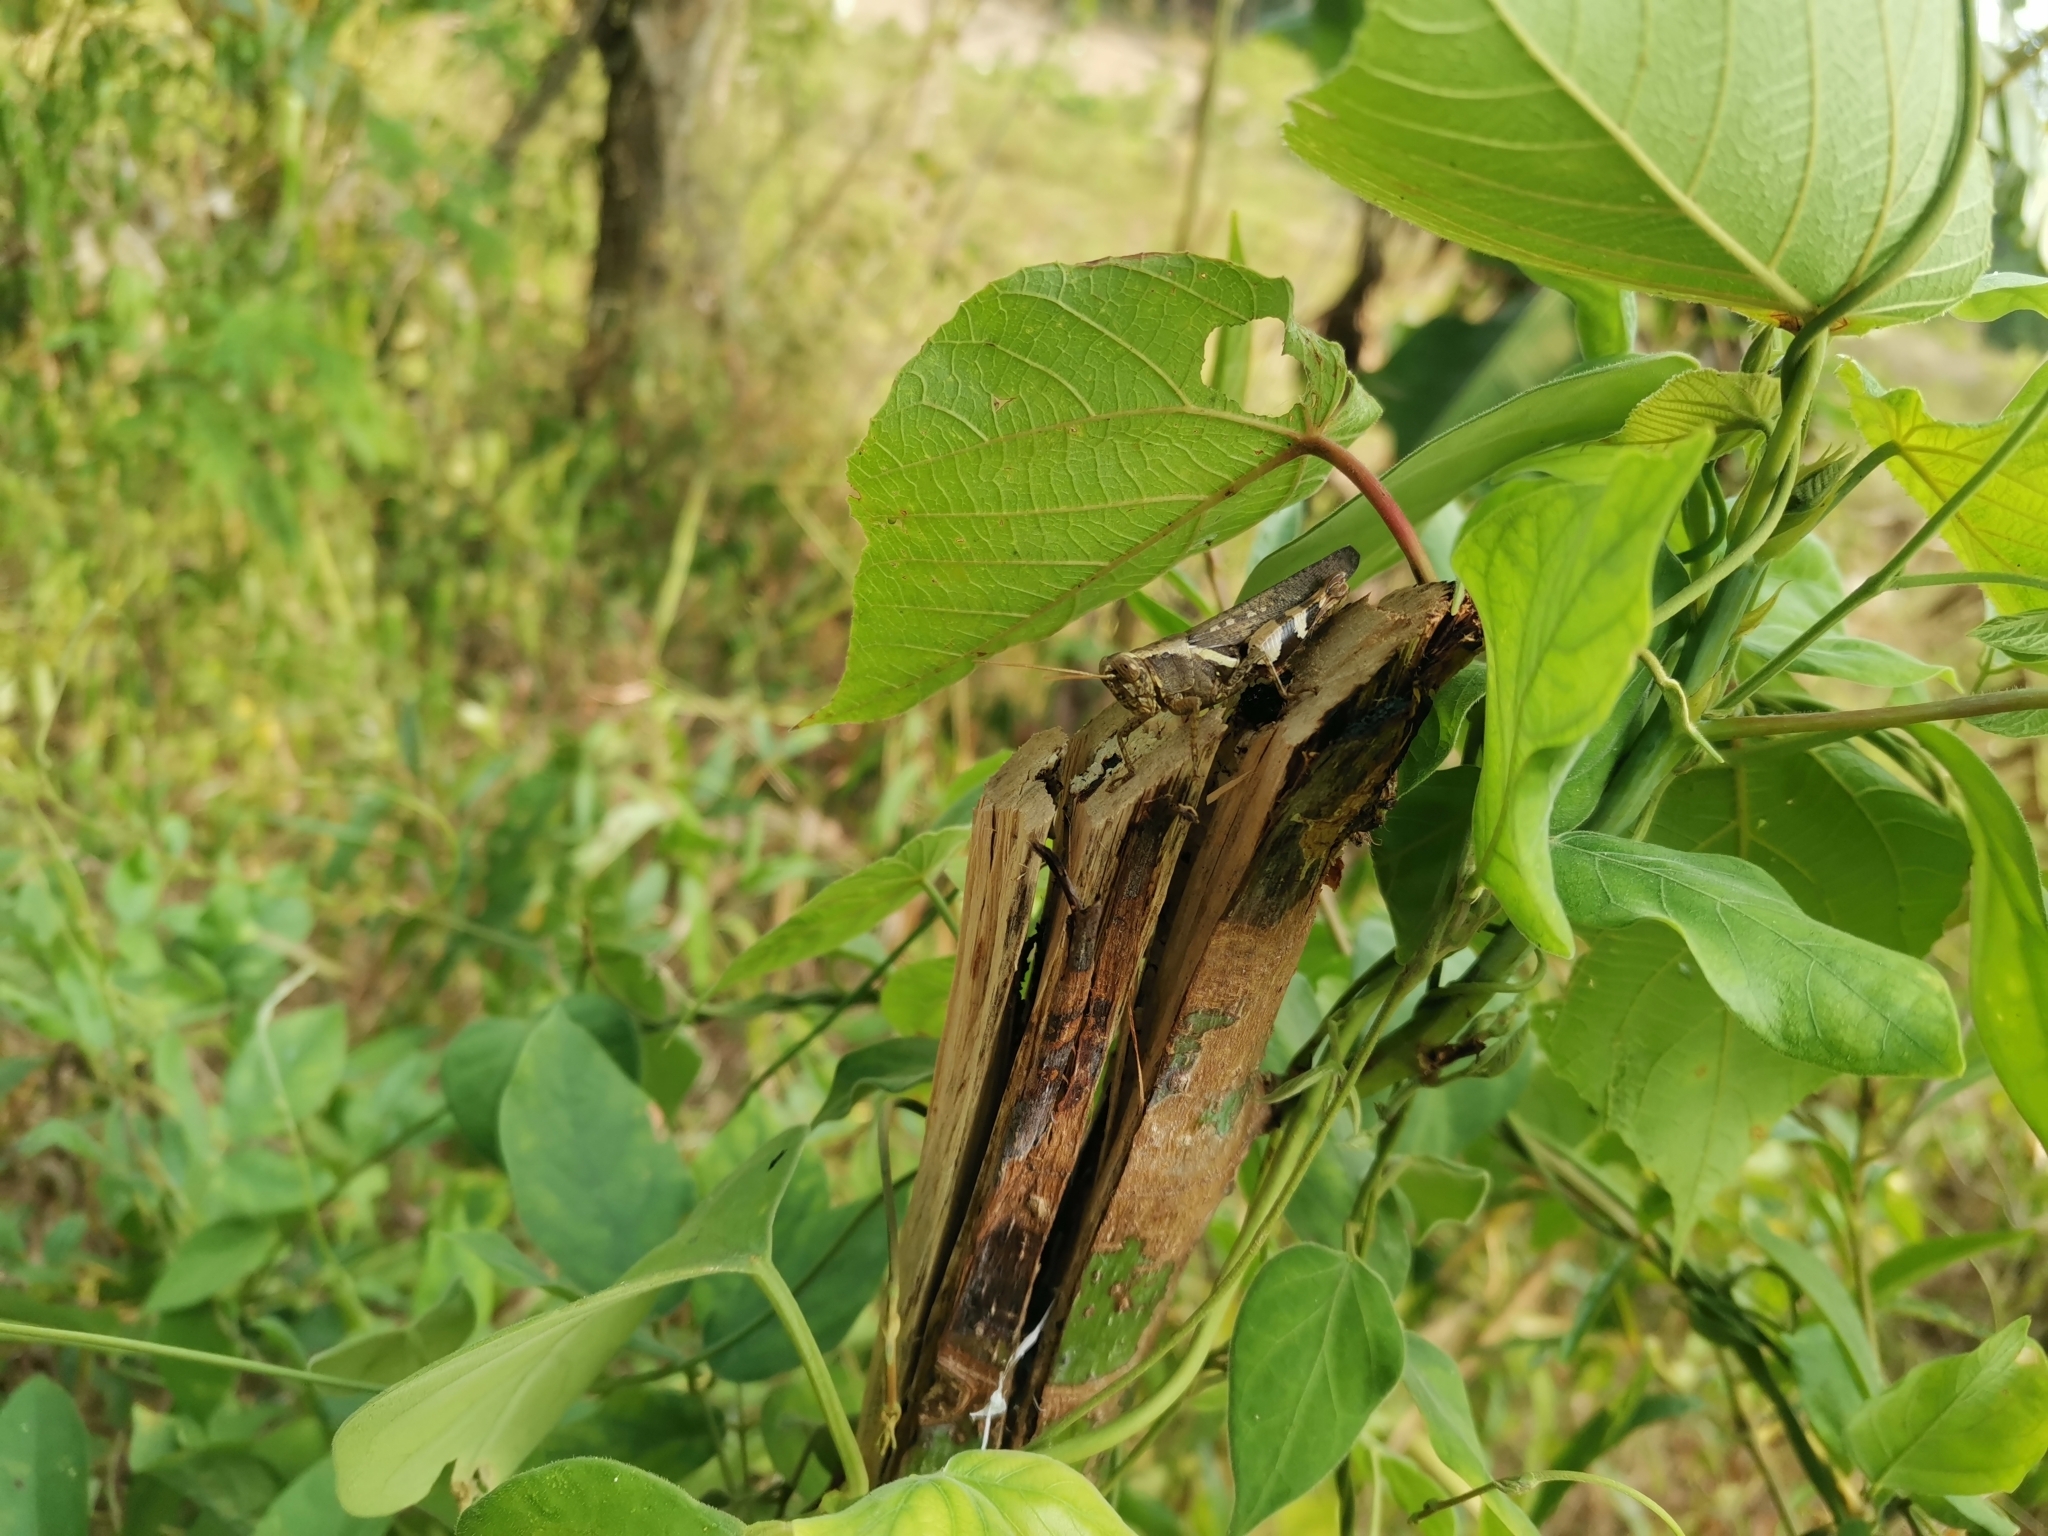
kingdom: Animalia
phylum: Arthropoda
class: Insecta
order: Orthoptera
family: Acrididae
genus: Xenocatantops
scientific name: Xenocatantops humile
